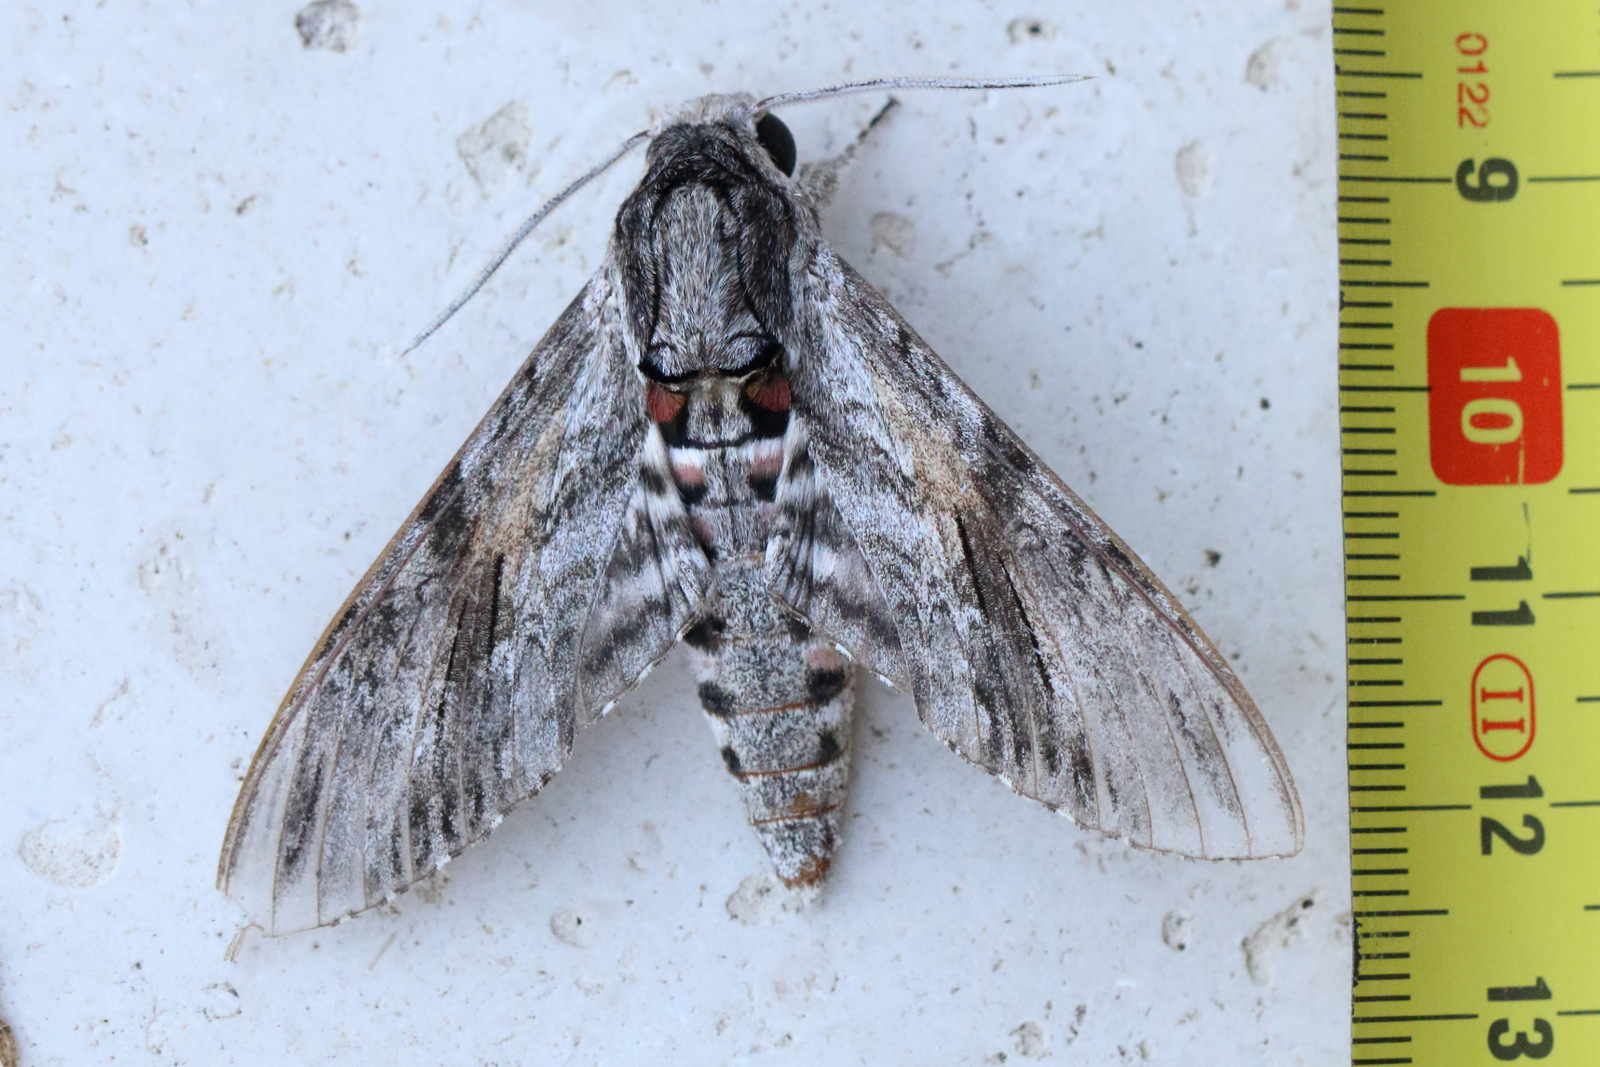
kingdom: Animalia
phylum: Arthropoda
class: Insecta
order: Lepidoptera
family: Sphingidae
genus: Agrius
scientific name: Agrius convolvuli
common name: Convolvulus hawkmoth
